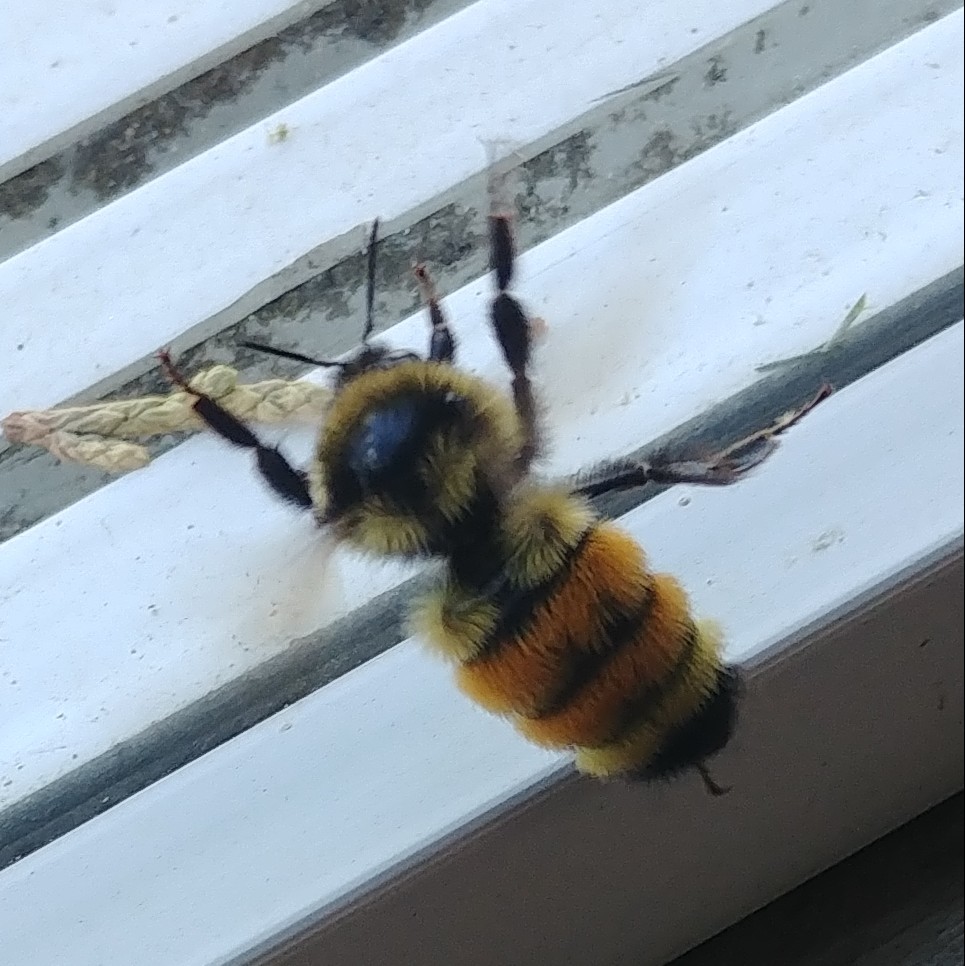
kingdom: Animalia
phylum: Arthropoda
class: Insecta
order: Hymenoptera
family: Apidae
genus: Bombus
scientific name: Bombus ternarius
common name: Tri-colored bumble bee
